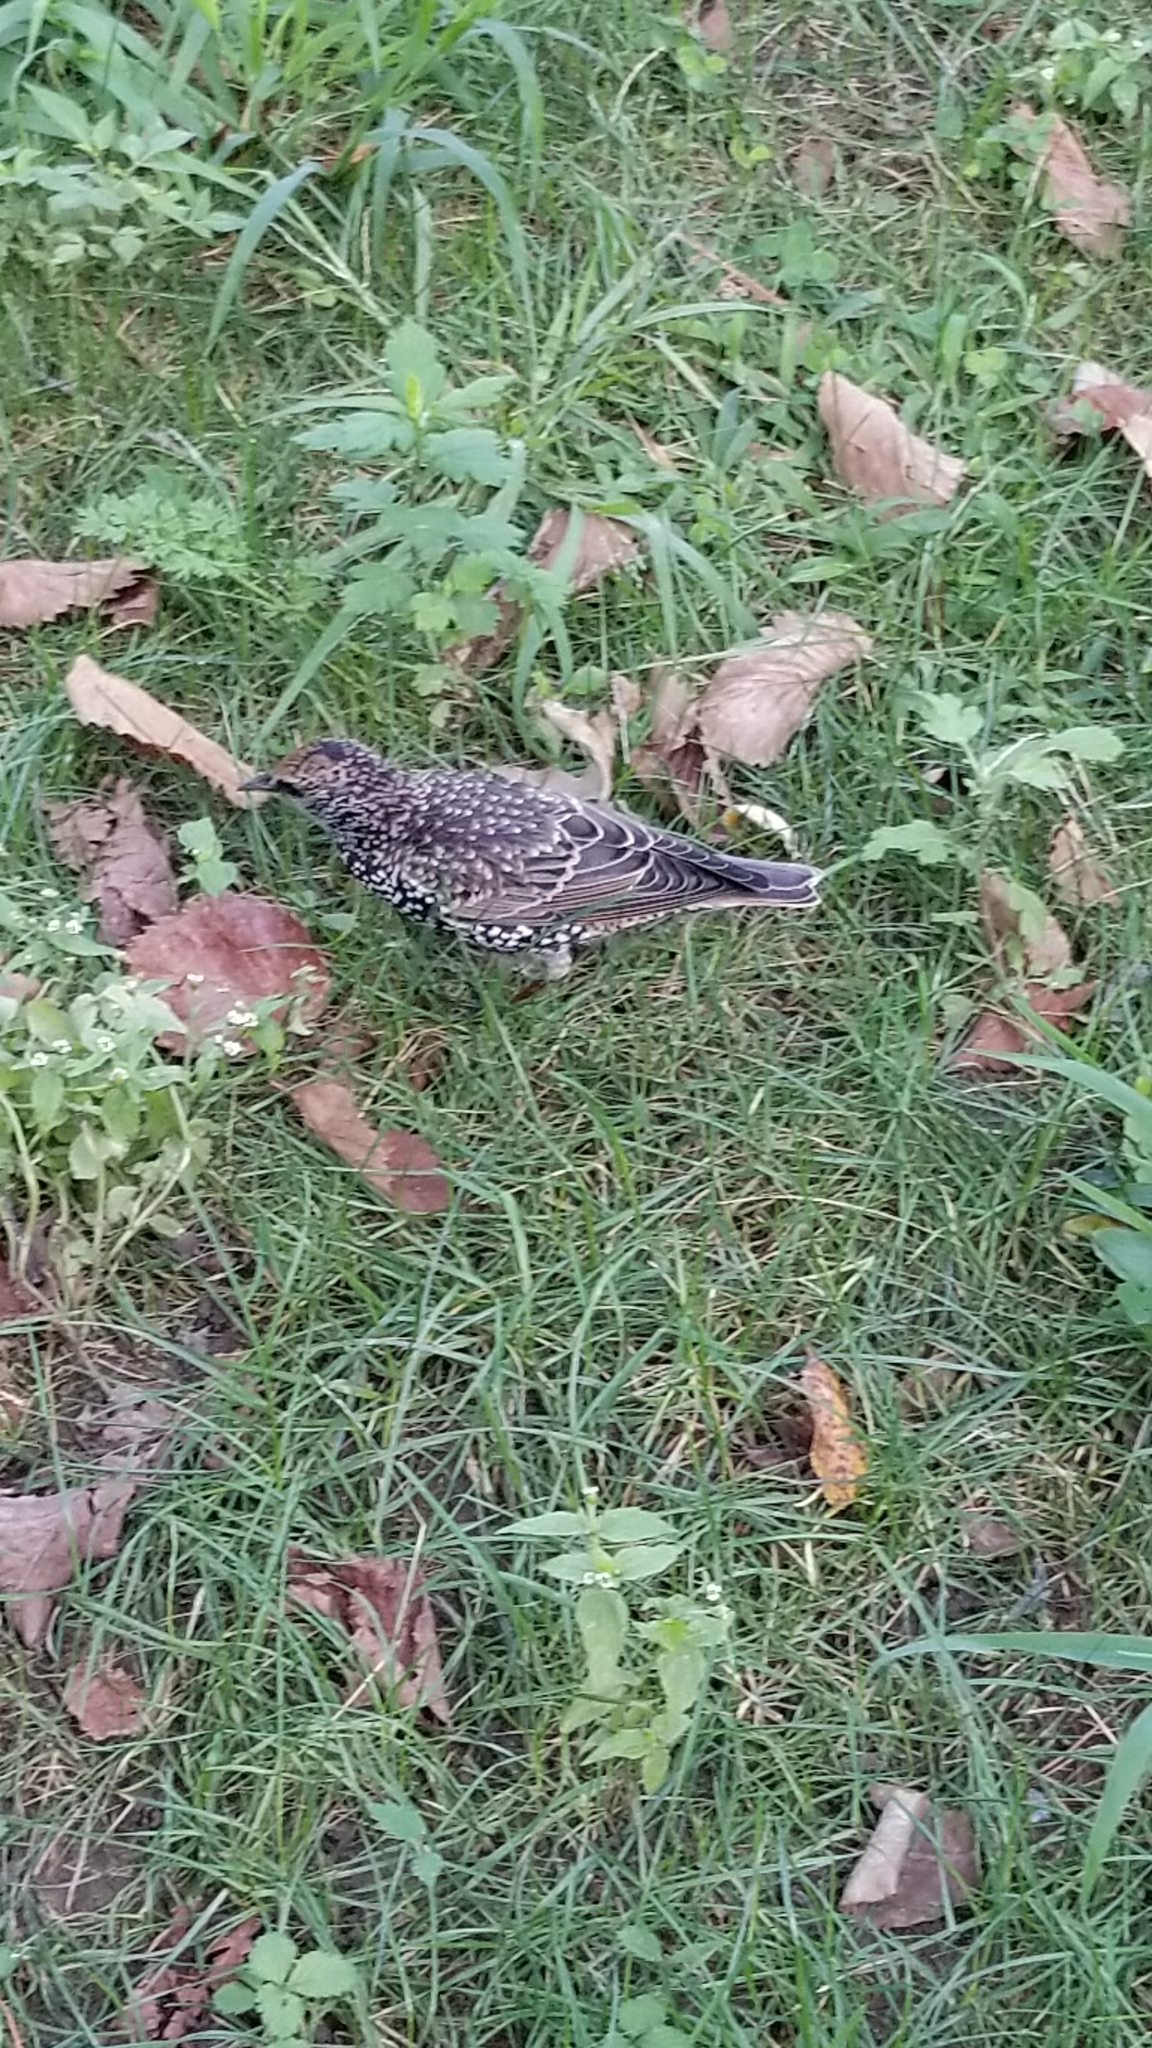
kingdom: Animalia
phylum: Chordata
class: Aves
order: Passeriformes
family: Sturnidae
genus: Sturnus
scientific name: Sturnus vulgaris
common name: Common starling
